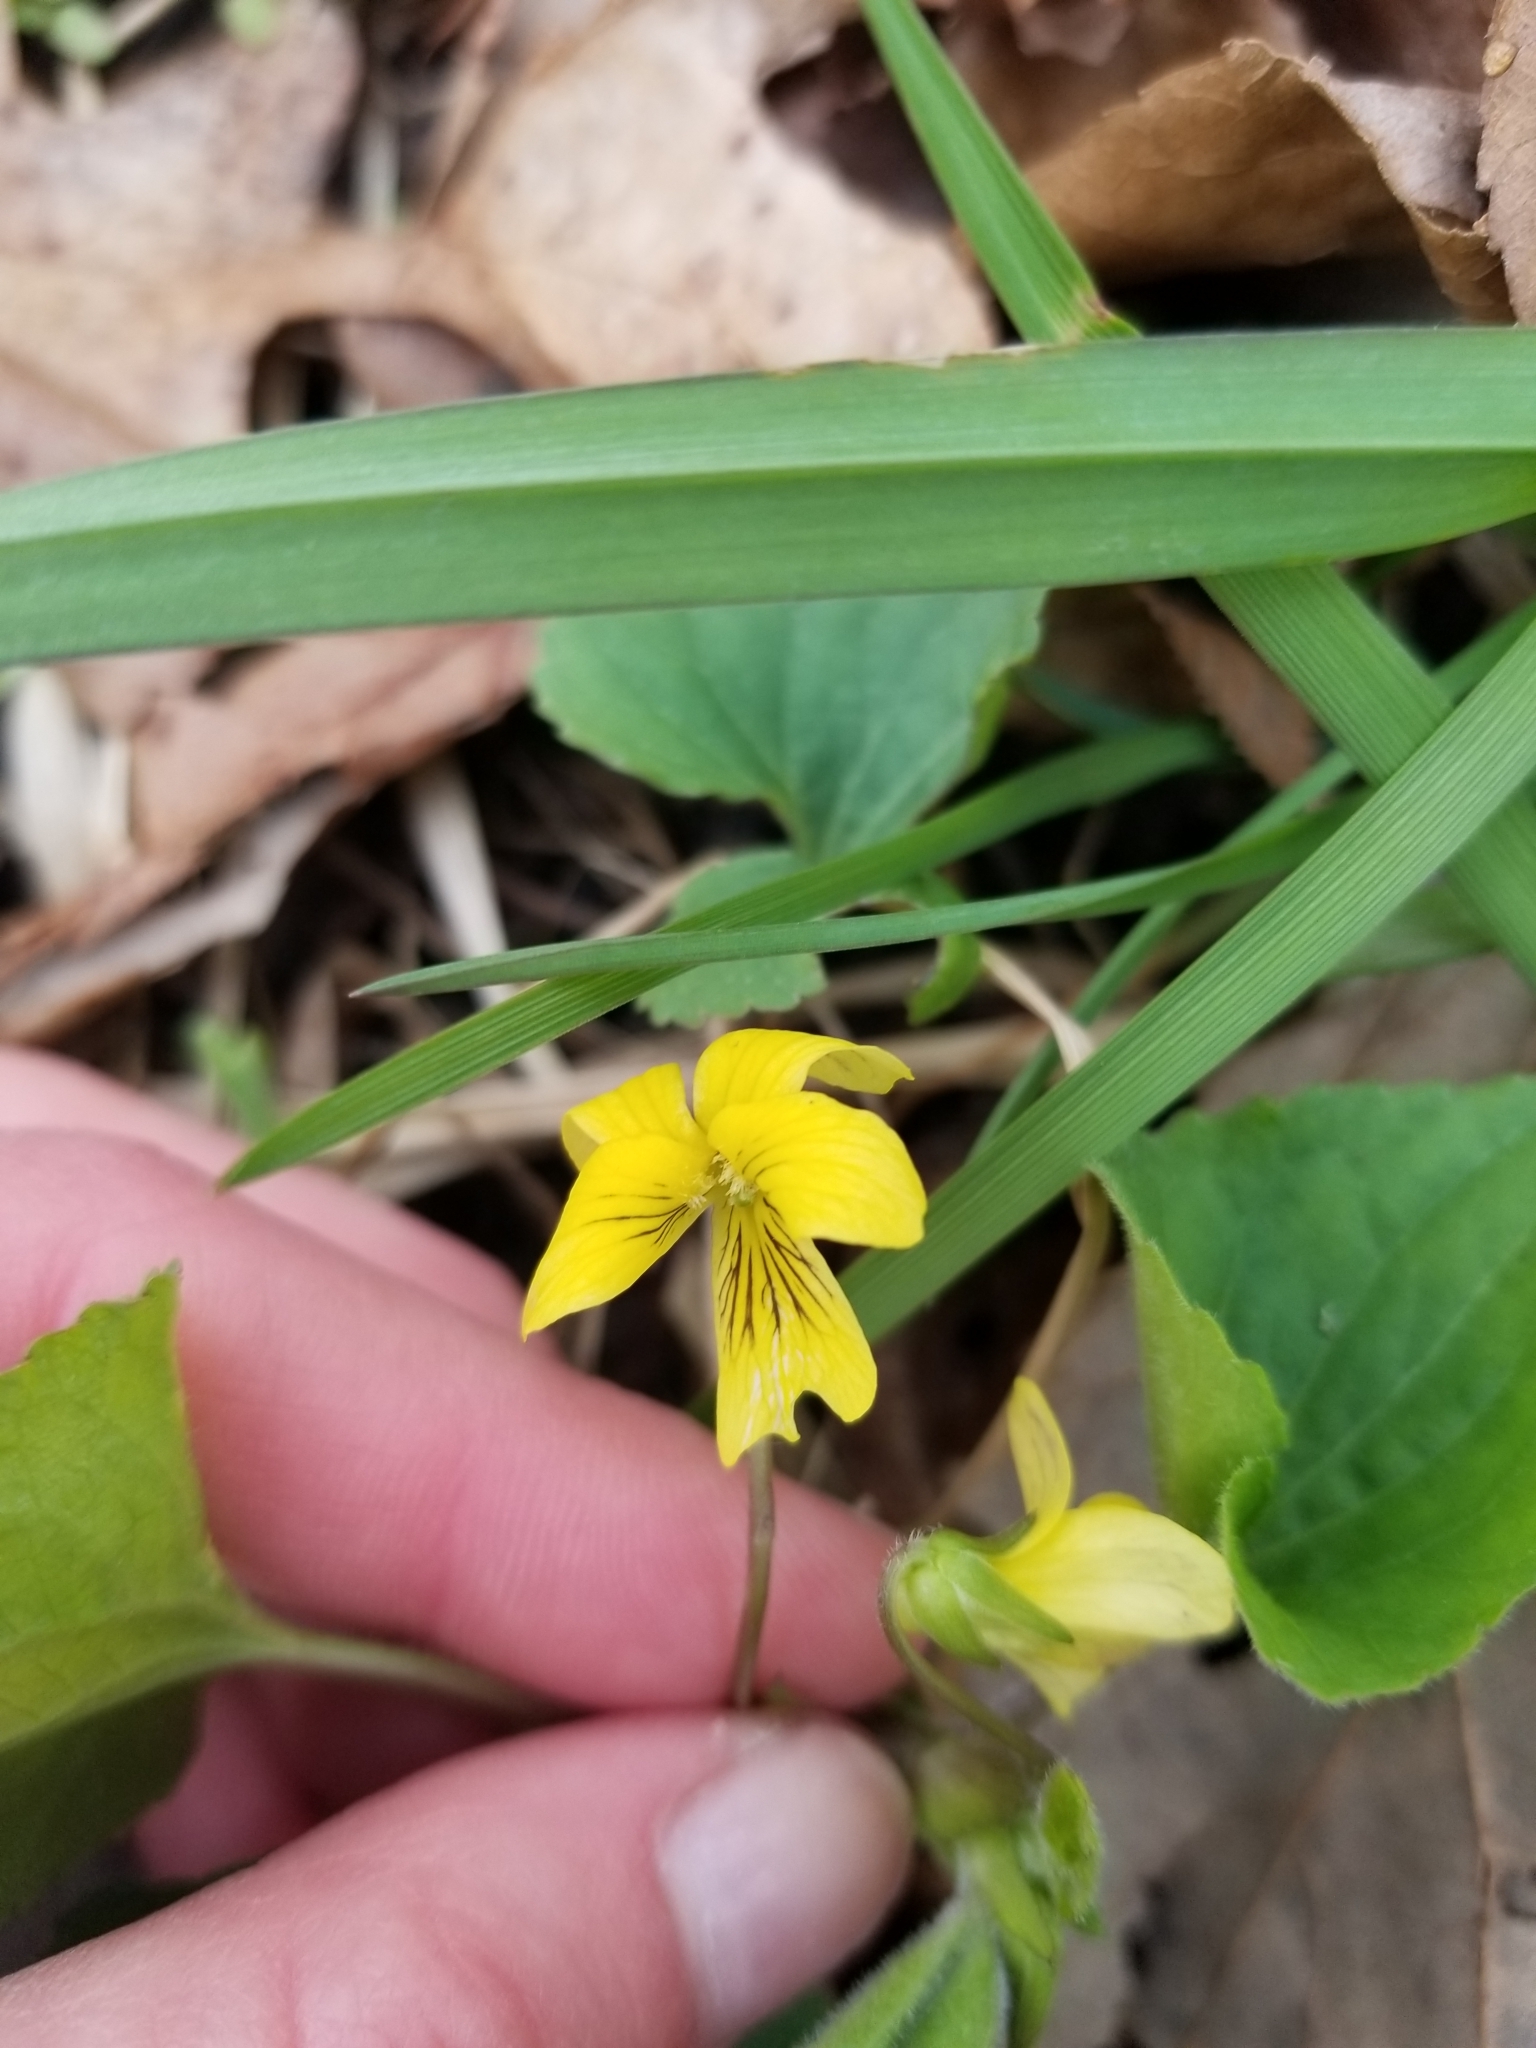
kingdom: Plantae
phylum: Tracheophyta
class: Magnoliopsida
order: Malpighiales
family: Violaceae
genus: Viola
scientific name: Viola eriocarpa
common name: Smooth yellow violet
